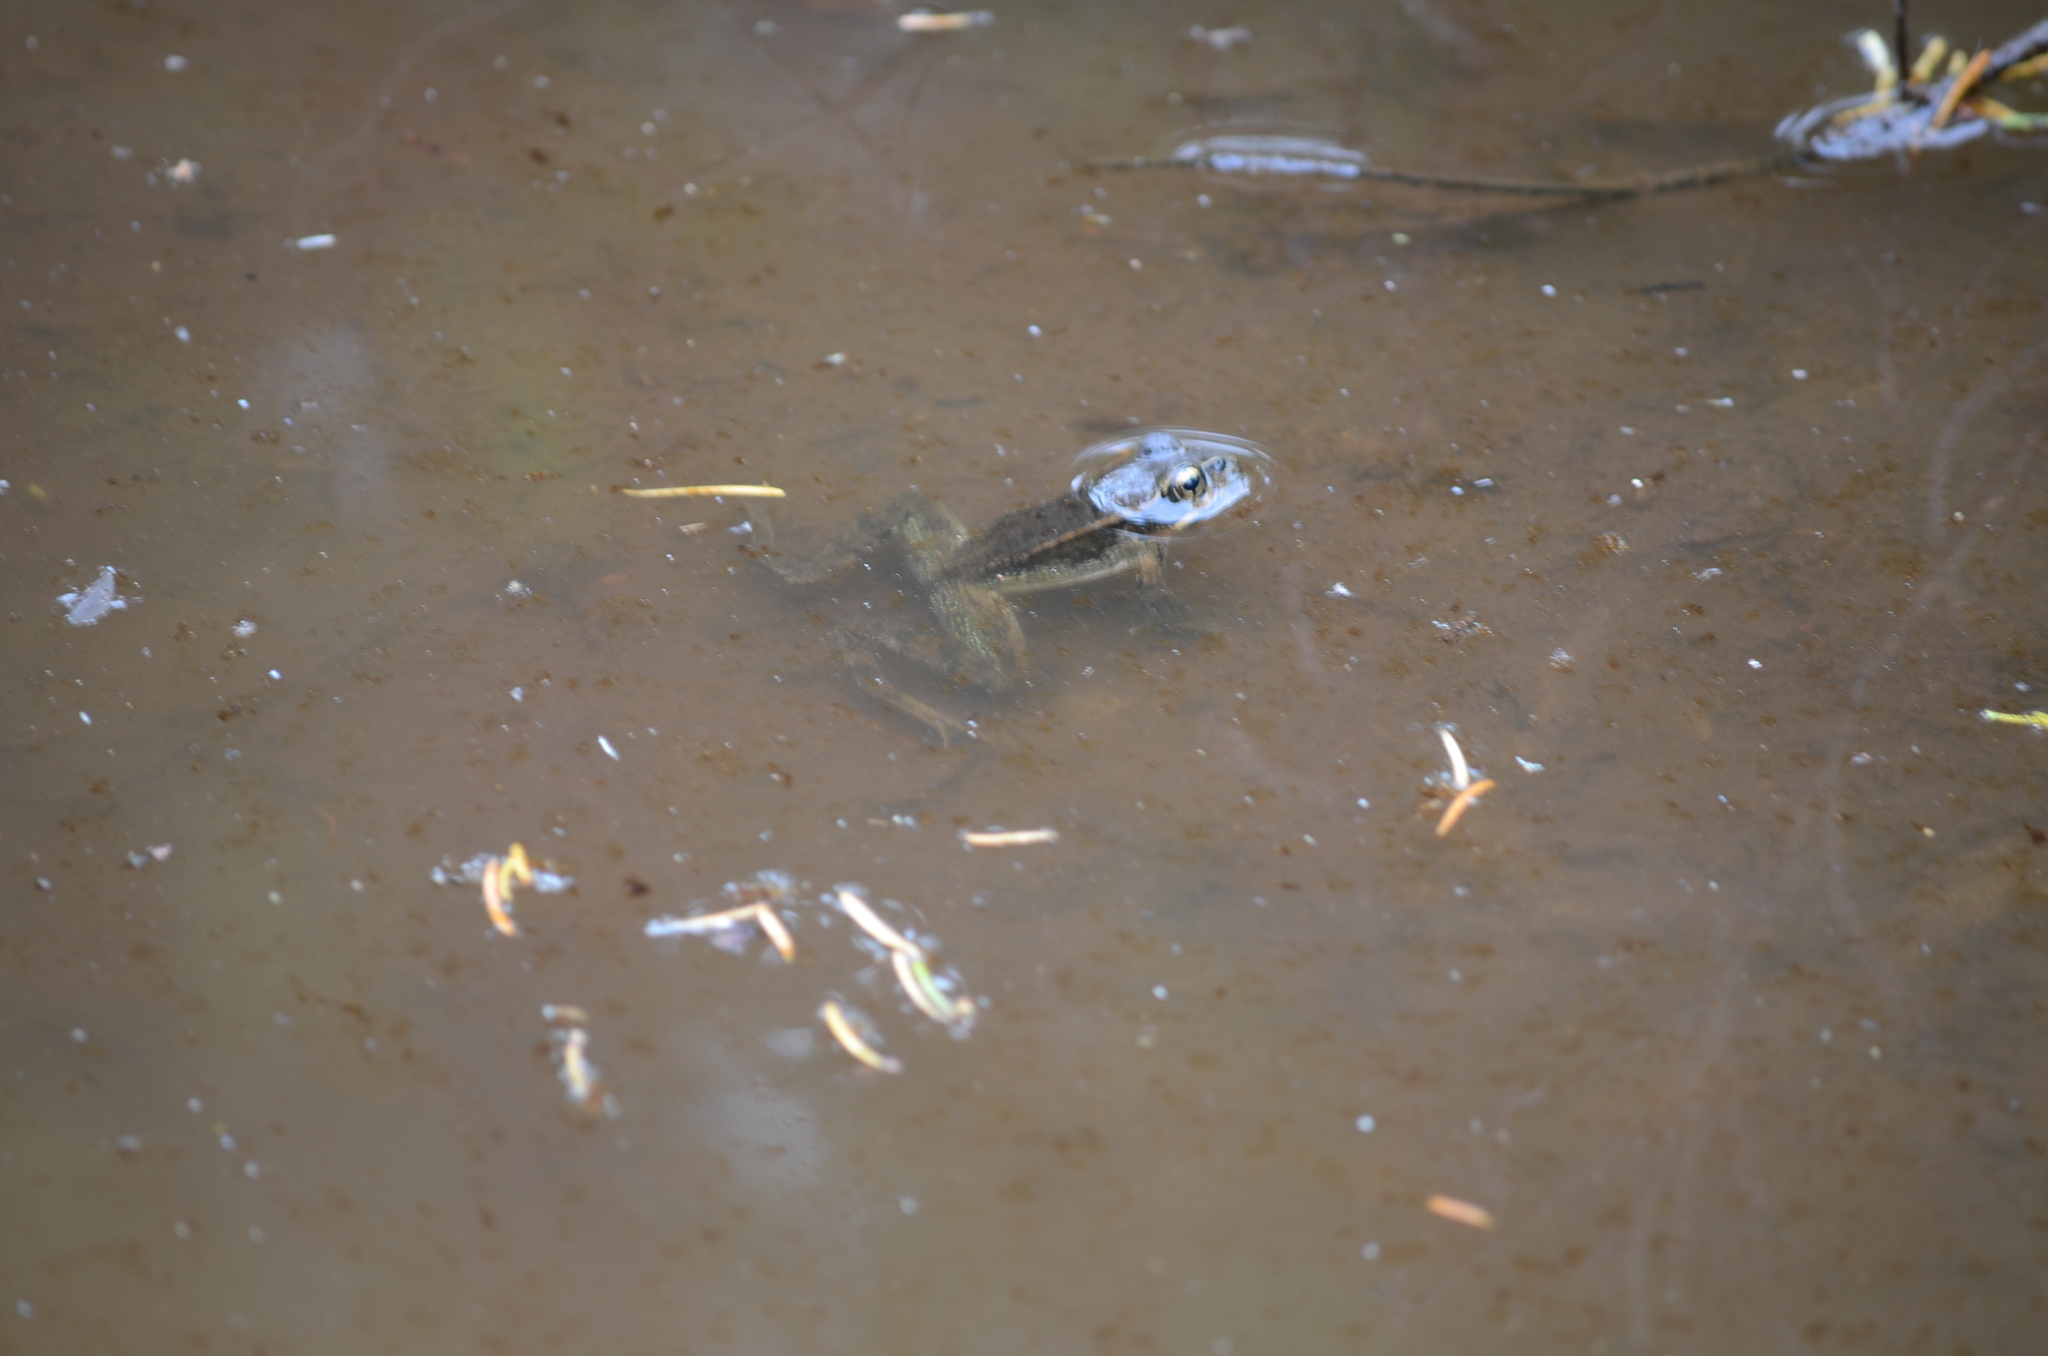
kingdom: Animalia
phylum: Chordata
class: Amphibia
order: Anura
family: Ranidae
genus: Rana
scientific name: Rana aurora
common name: Red-legged frog
